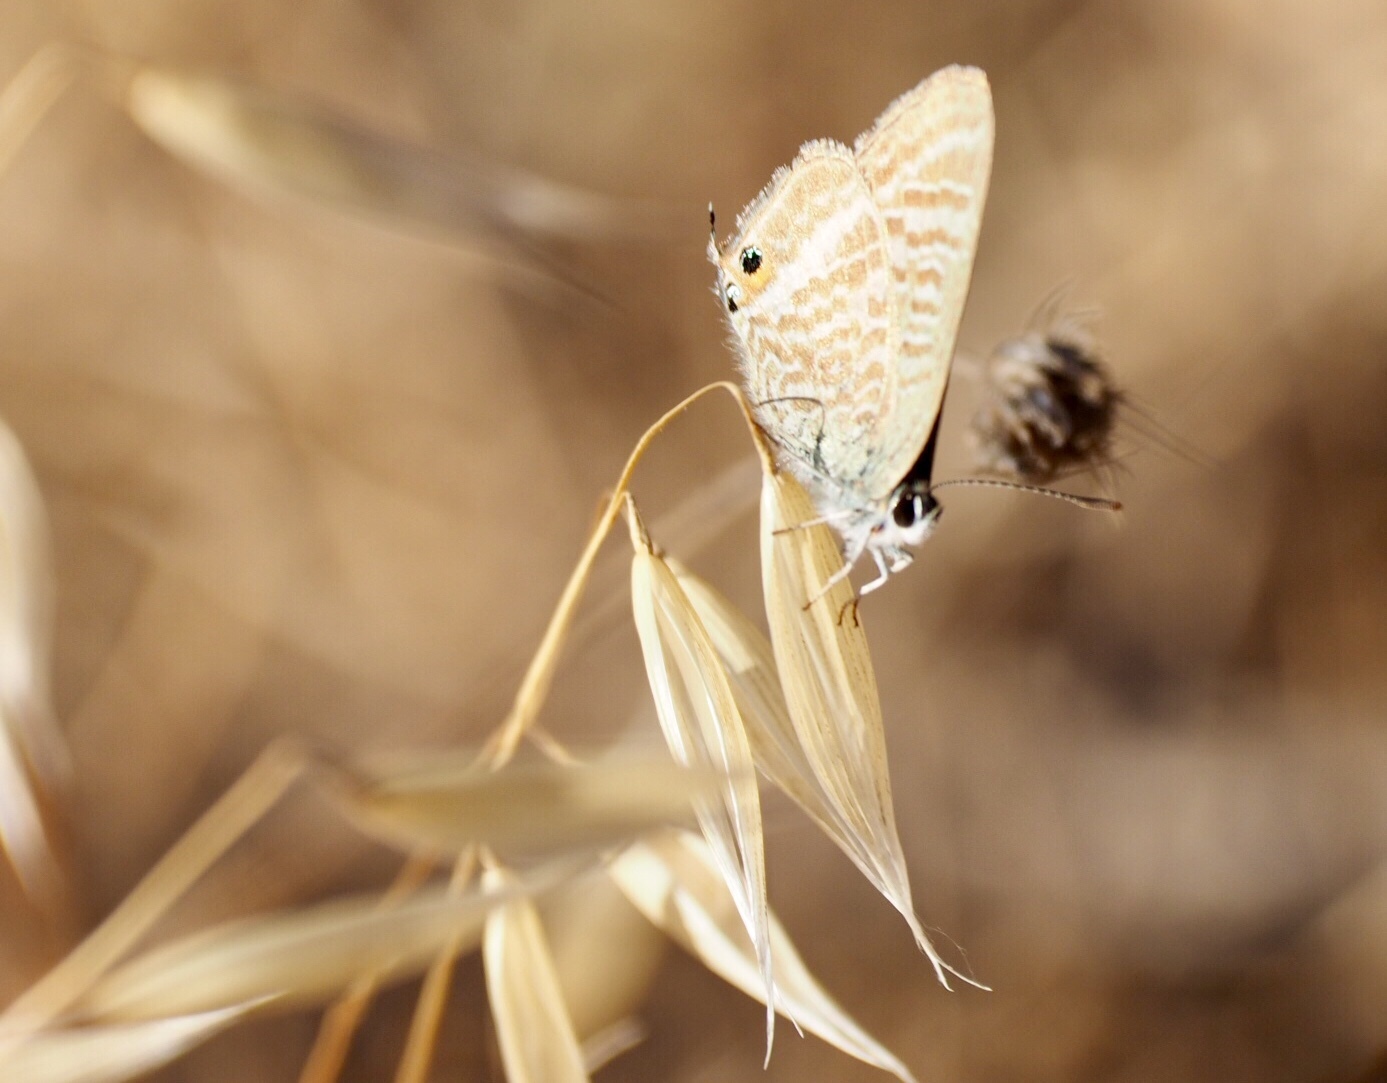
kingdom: Animalia
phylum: Arthropoda
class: Insecta
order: Lepidoptera
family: Lycaenidae
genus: Lampides
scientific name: Lampides boeticus
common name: Long-tailed blue
